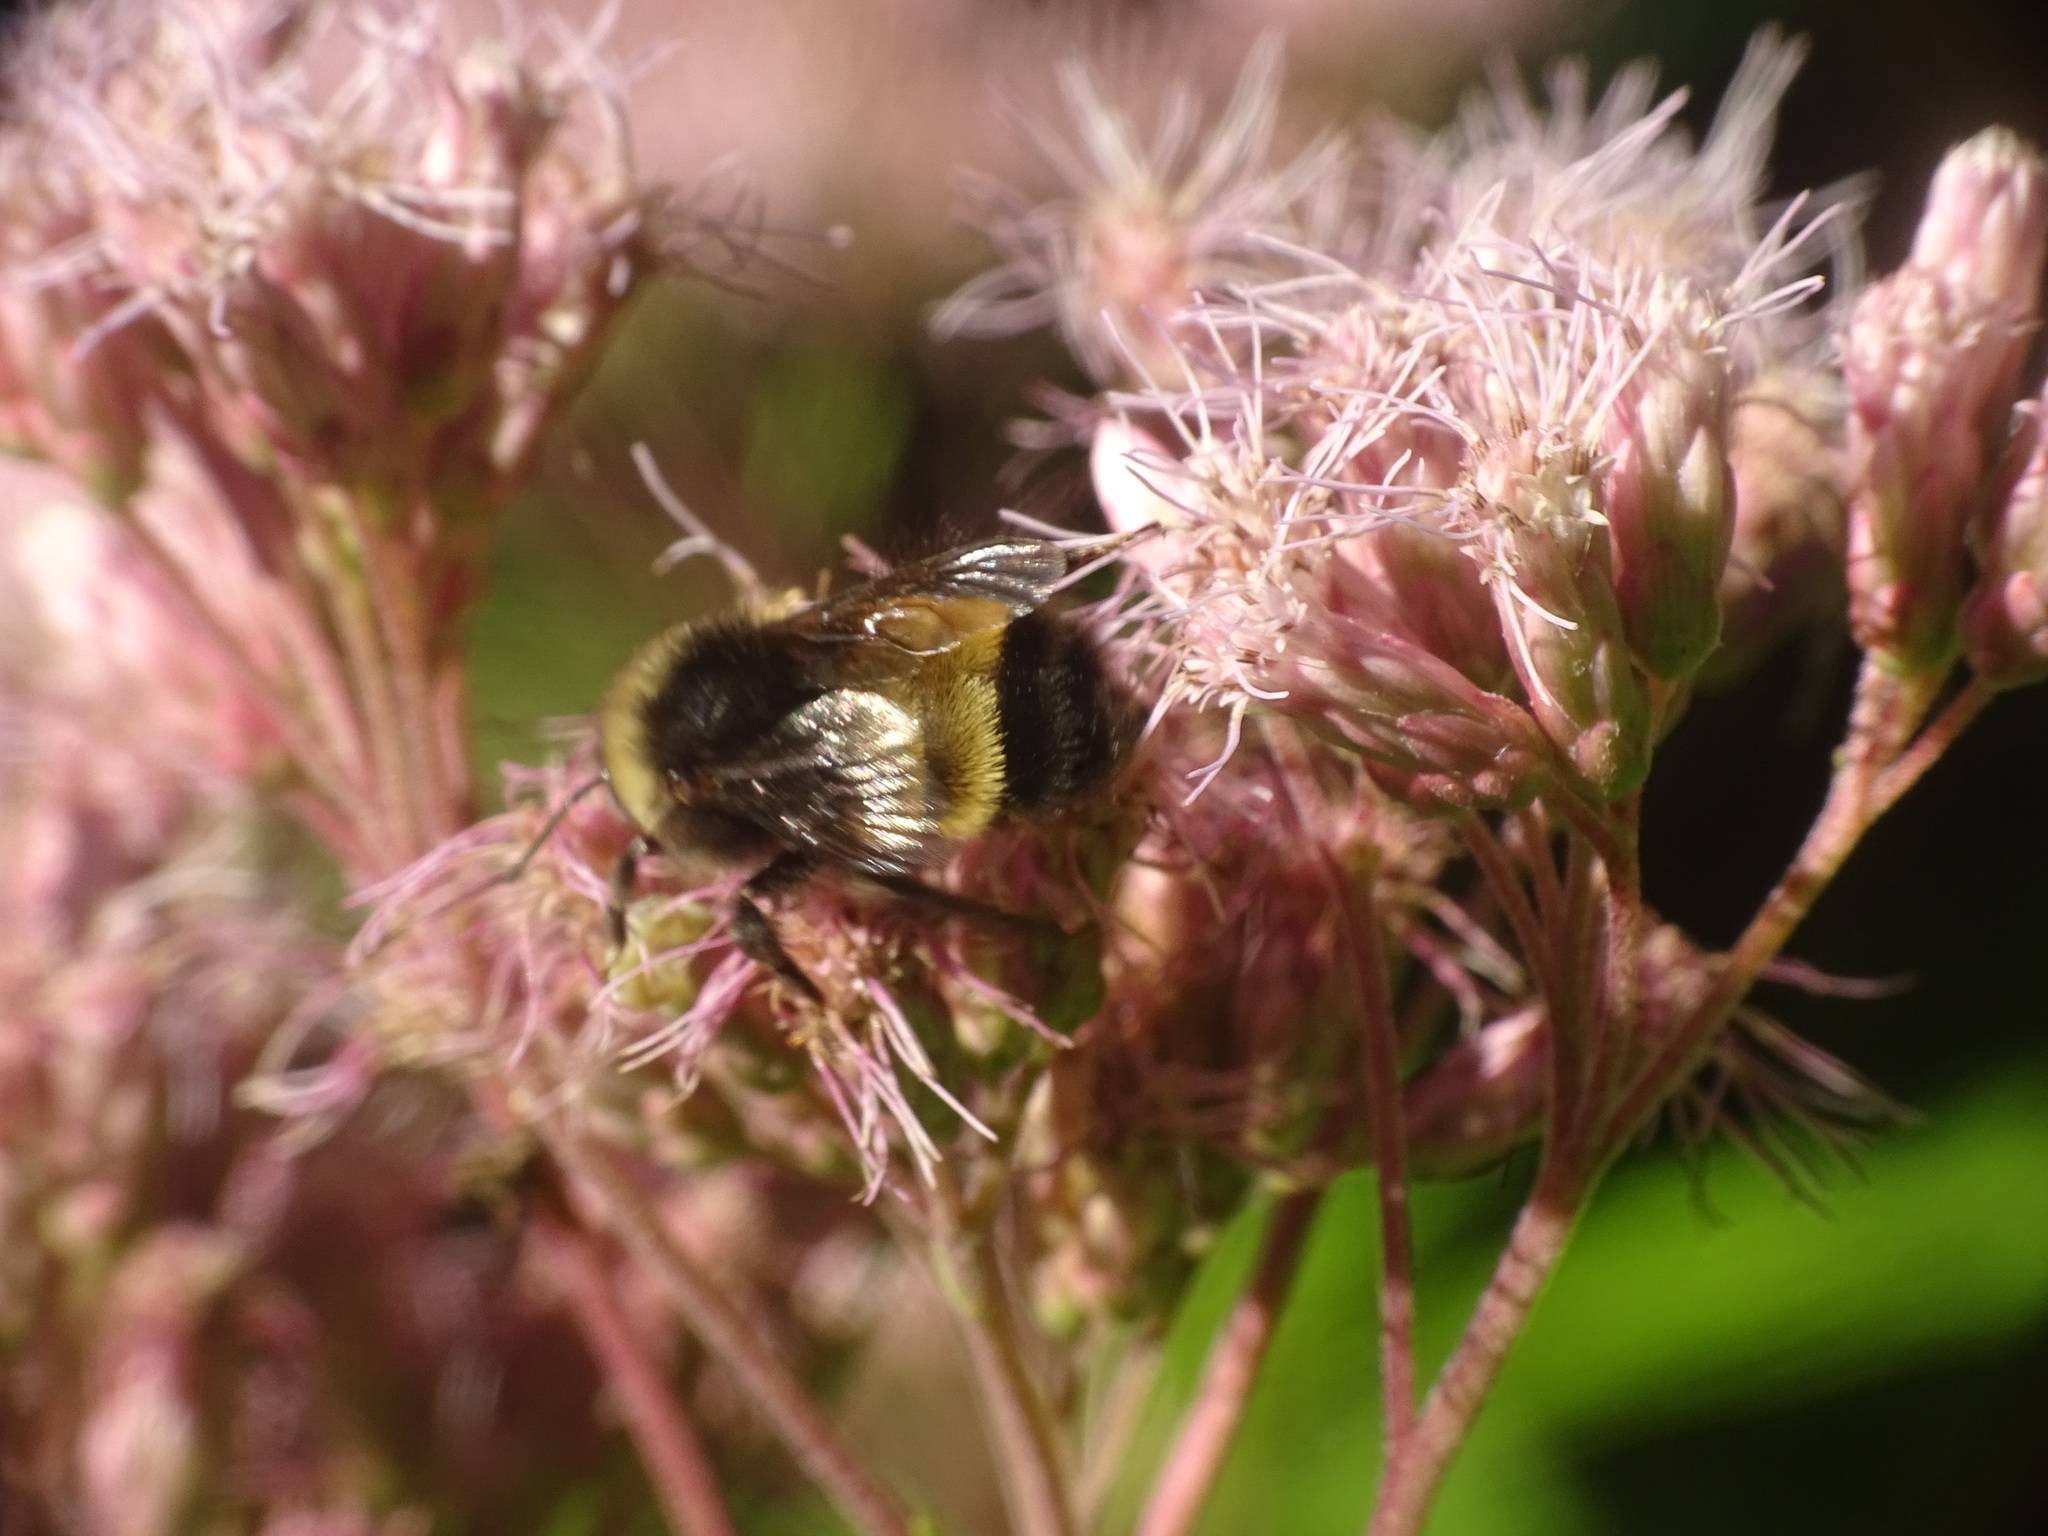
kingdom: Animalia
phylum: Arthropoda
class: Insecta
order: Hymenoptera
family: Apidae
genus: Bombus
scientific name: Bombus terricola
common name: Yellow-banded bumble bee
